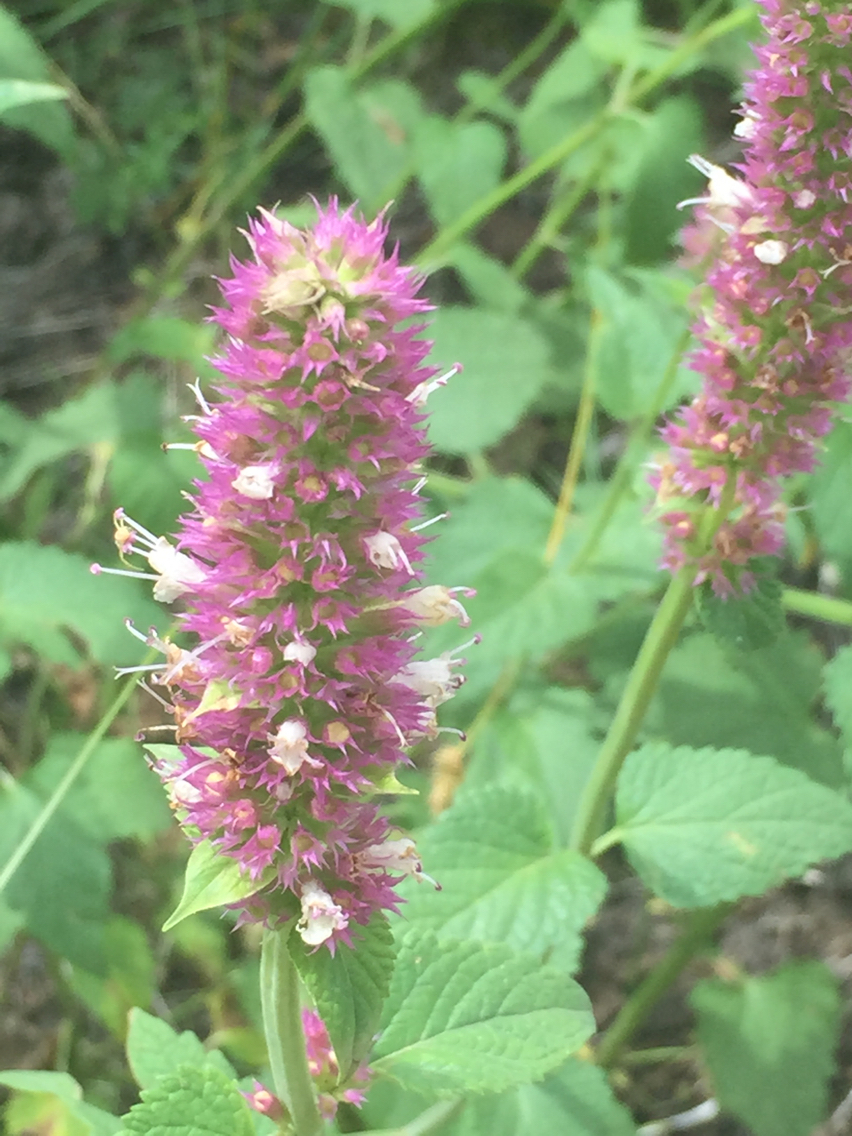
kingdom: Plantae
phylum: Tracheophyta
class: Magnoliopsida
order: Lamiales
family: Lamiaceae
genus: Agastache
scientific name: Agastache urticifolia
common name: Horsemint giant hyssop
